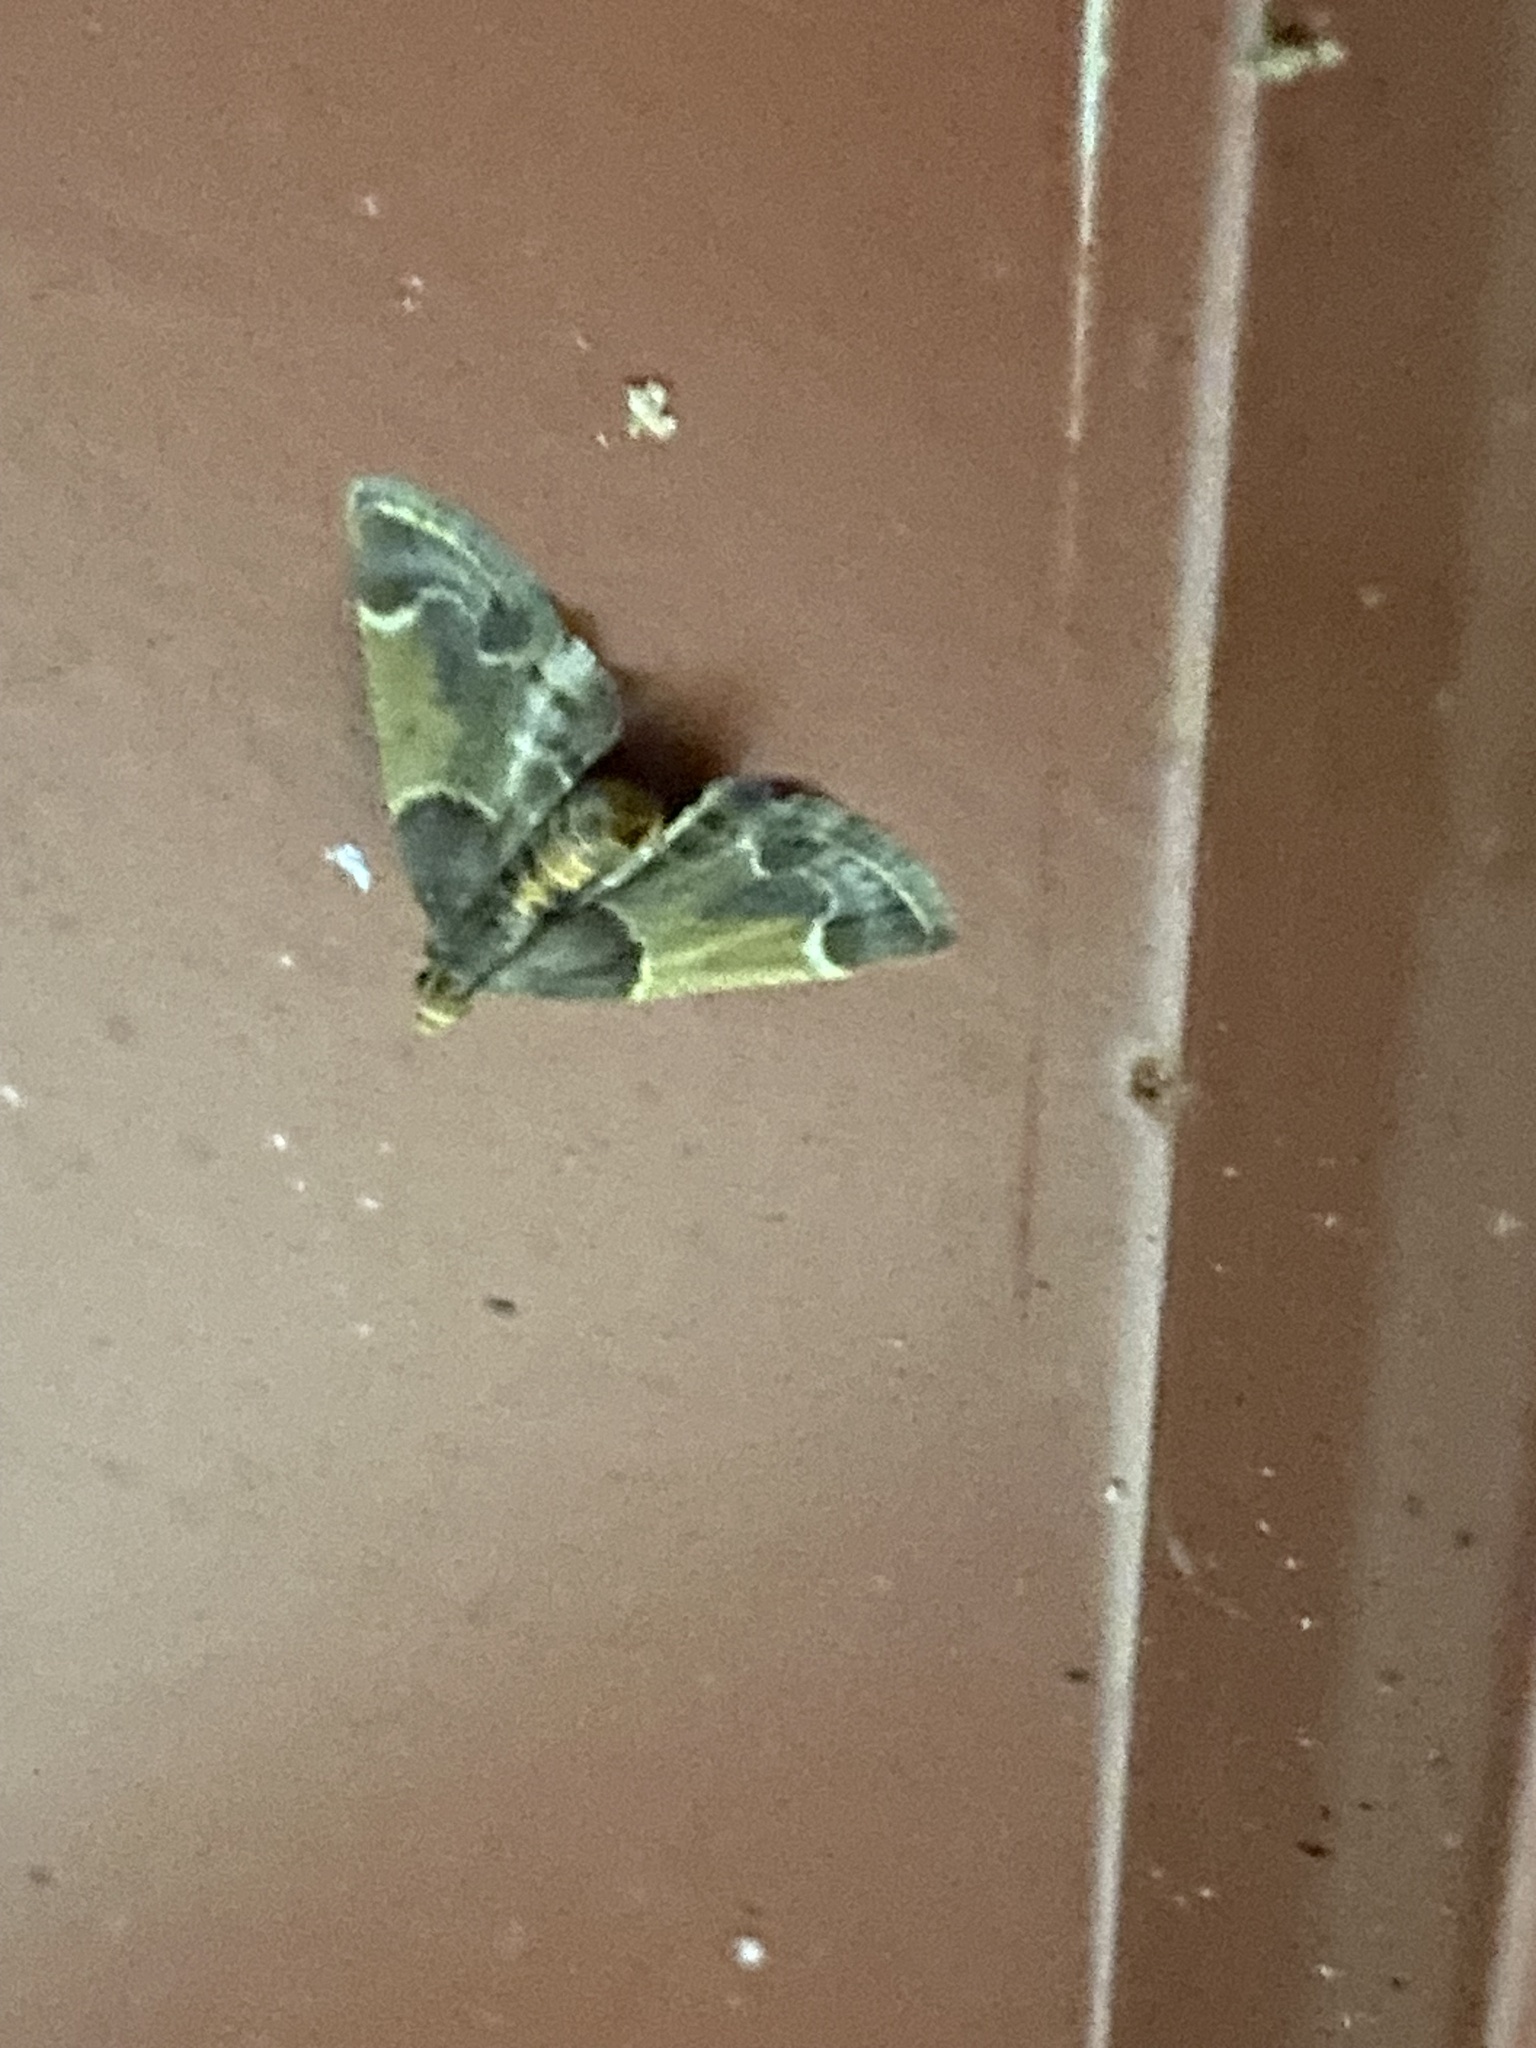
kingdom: Animalia
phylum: Arthropoda
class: Insecta
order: Lepidoptera
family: Pyralidae
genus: Pyralis
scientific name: Pyralis farinalis
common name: Meal moth
